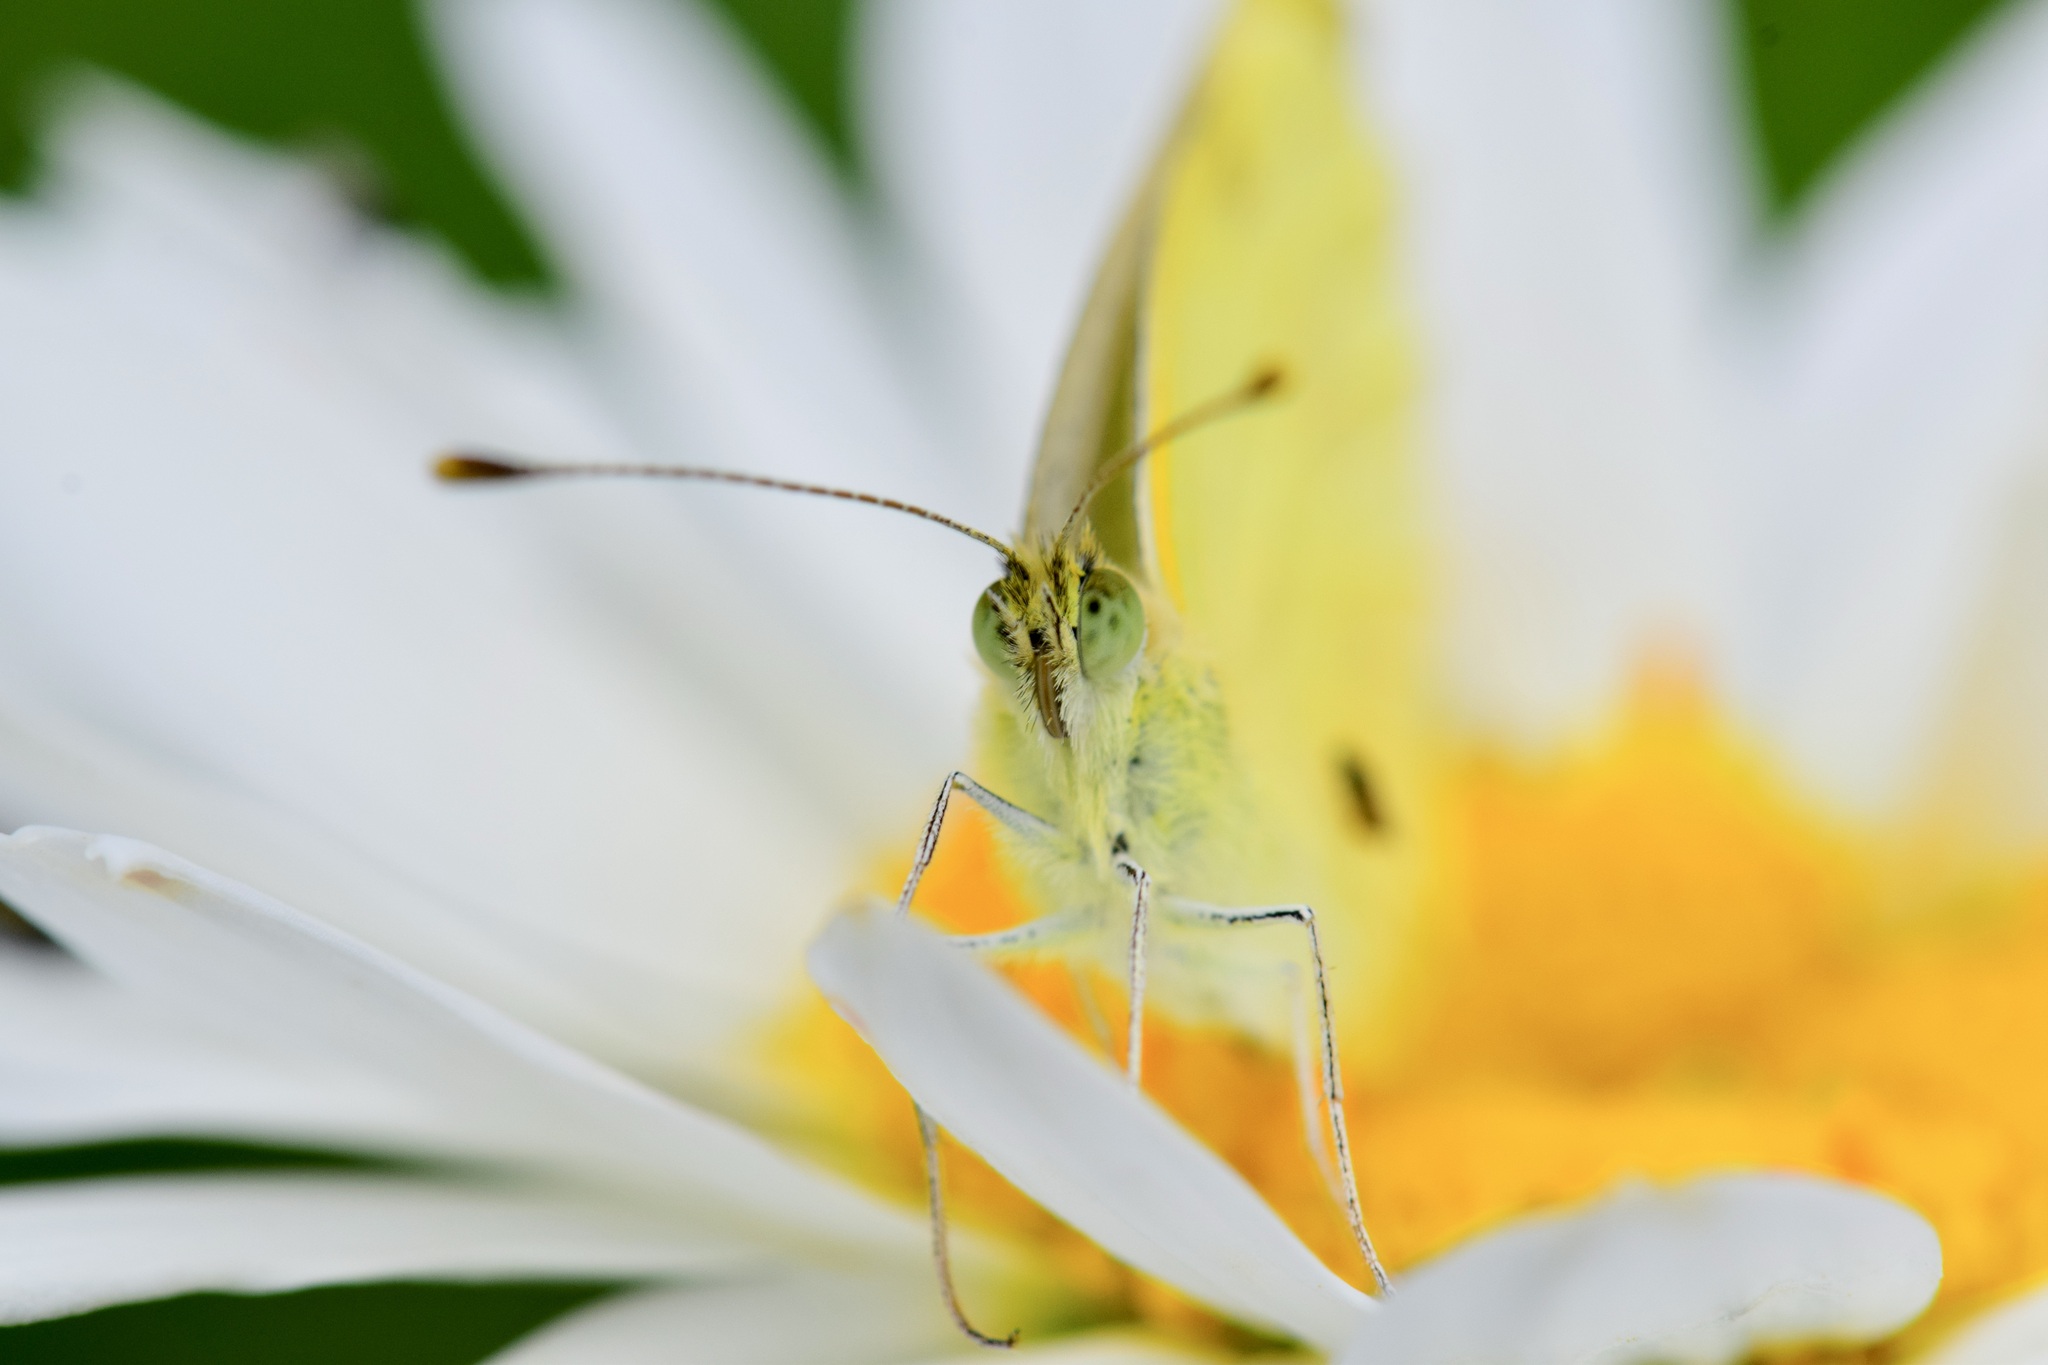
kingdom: Animalia
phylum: Arthropoda
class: Insecta
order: Lepidoptera
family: Pieridae
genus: Pieris
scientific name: Pieris rapae
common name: Small white
